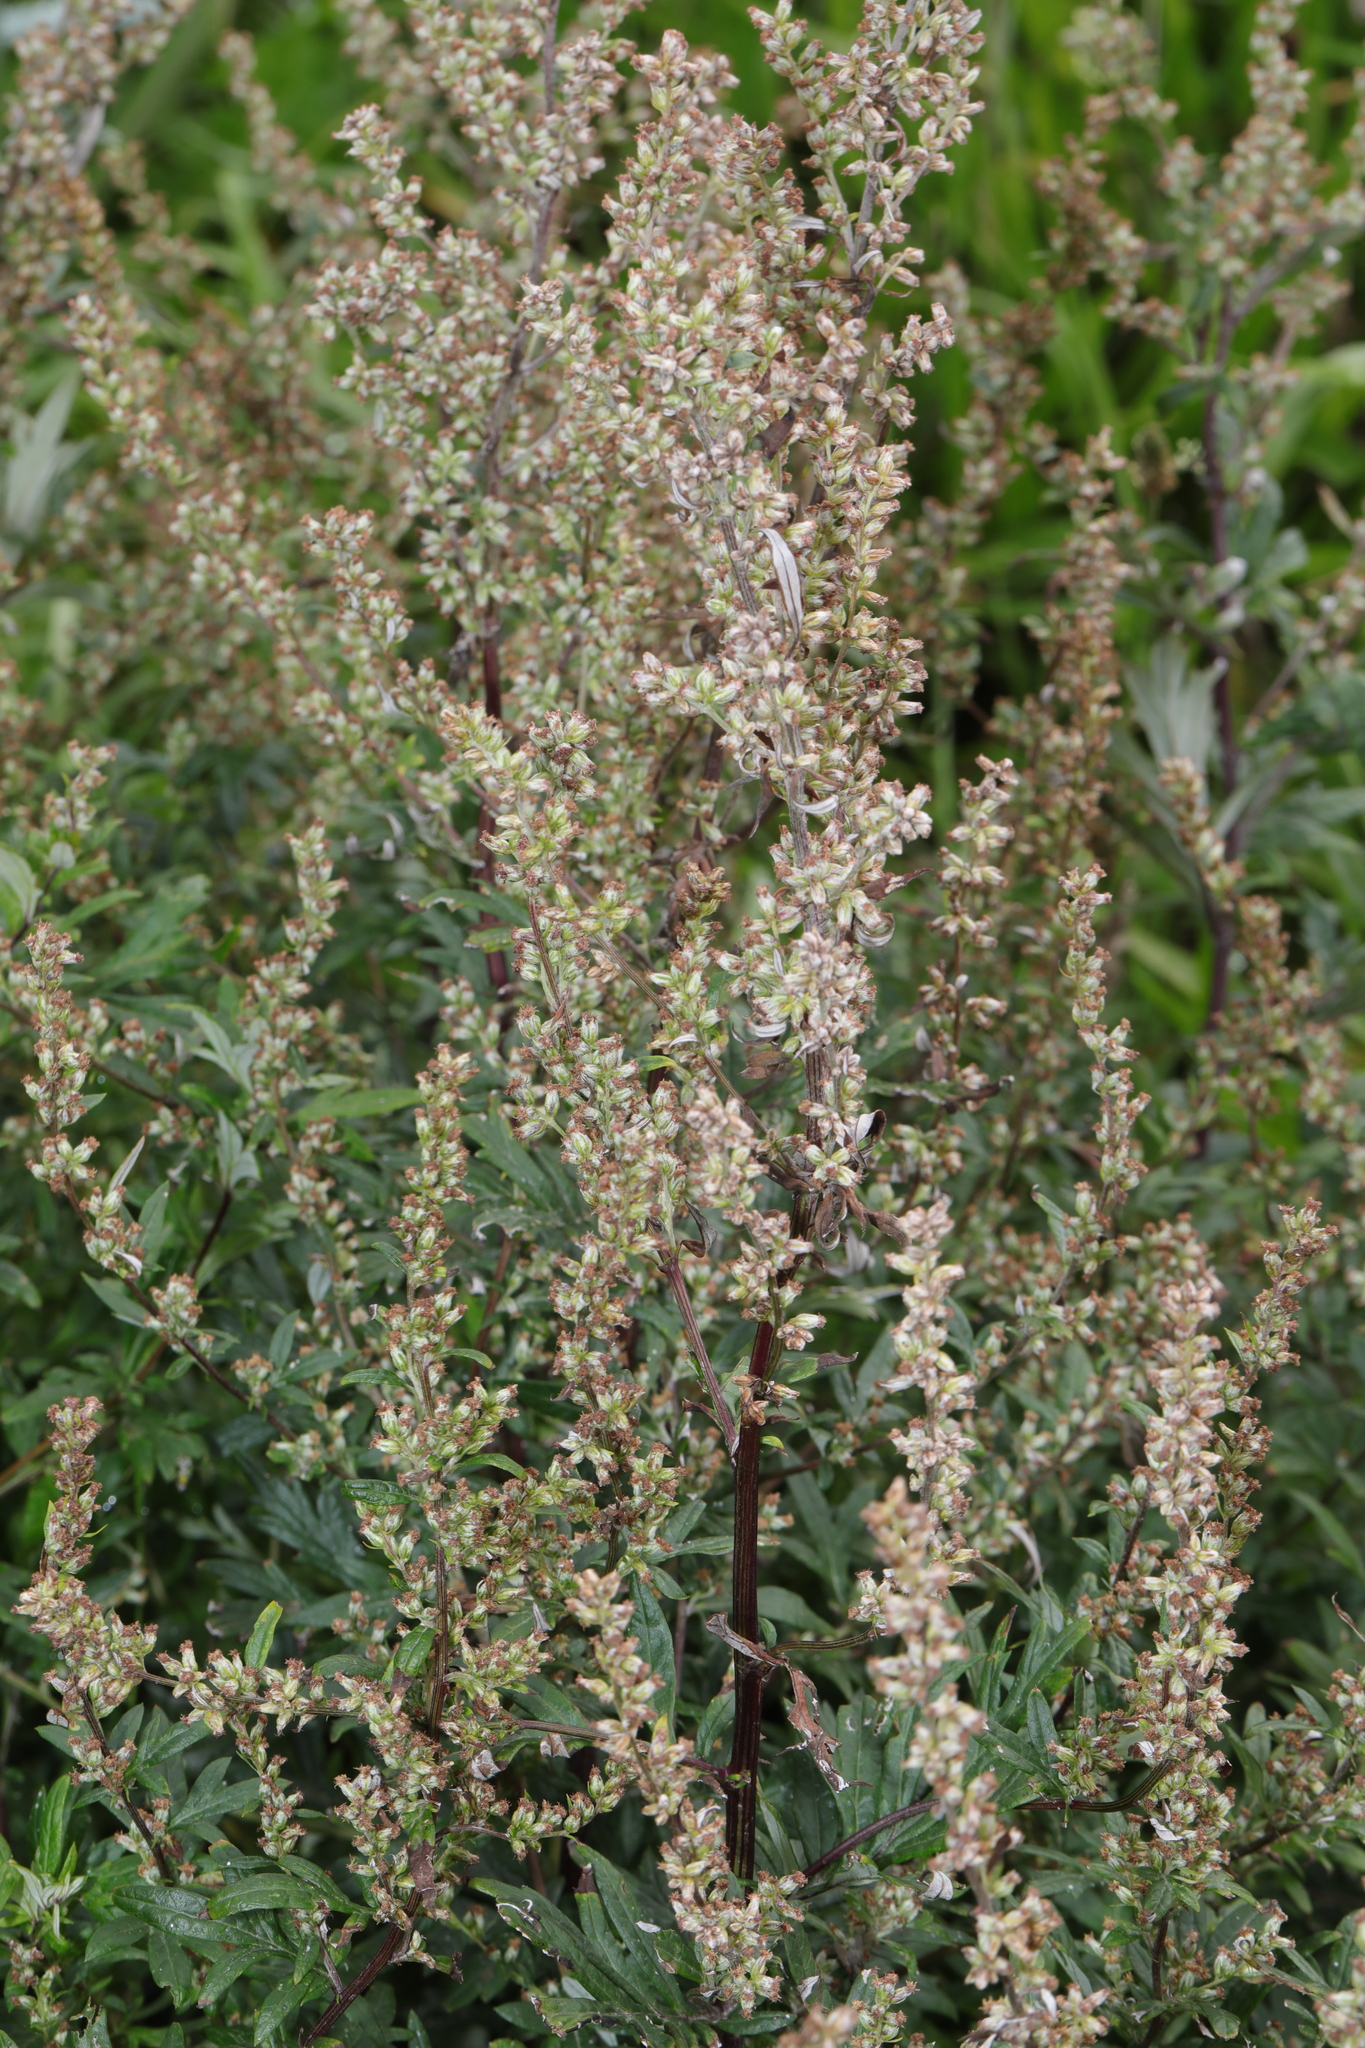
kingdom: Plantae
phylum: Tracheophyta
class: Magnoliopsida
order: Asterales
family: Asteraceae
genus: Artemisia
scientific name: Artemisia vulgaris
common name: Mugwort
